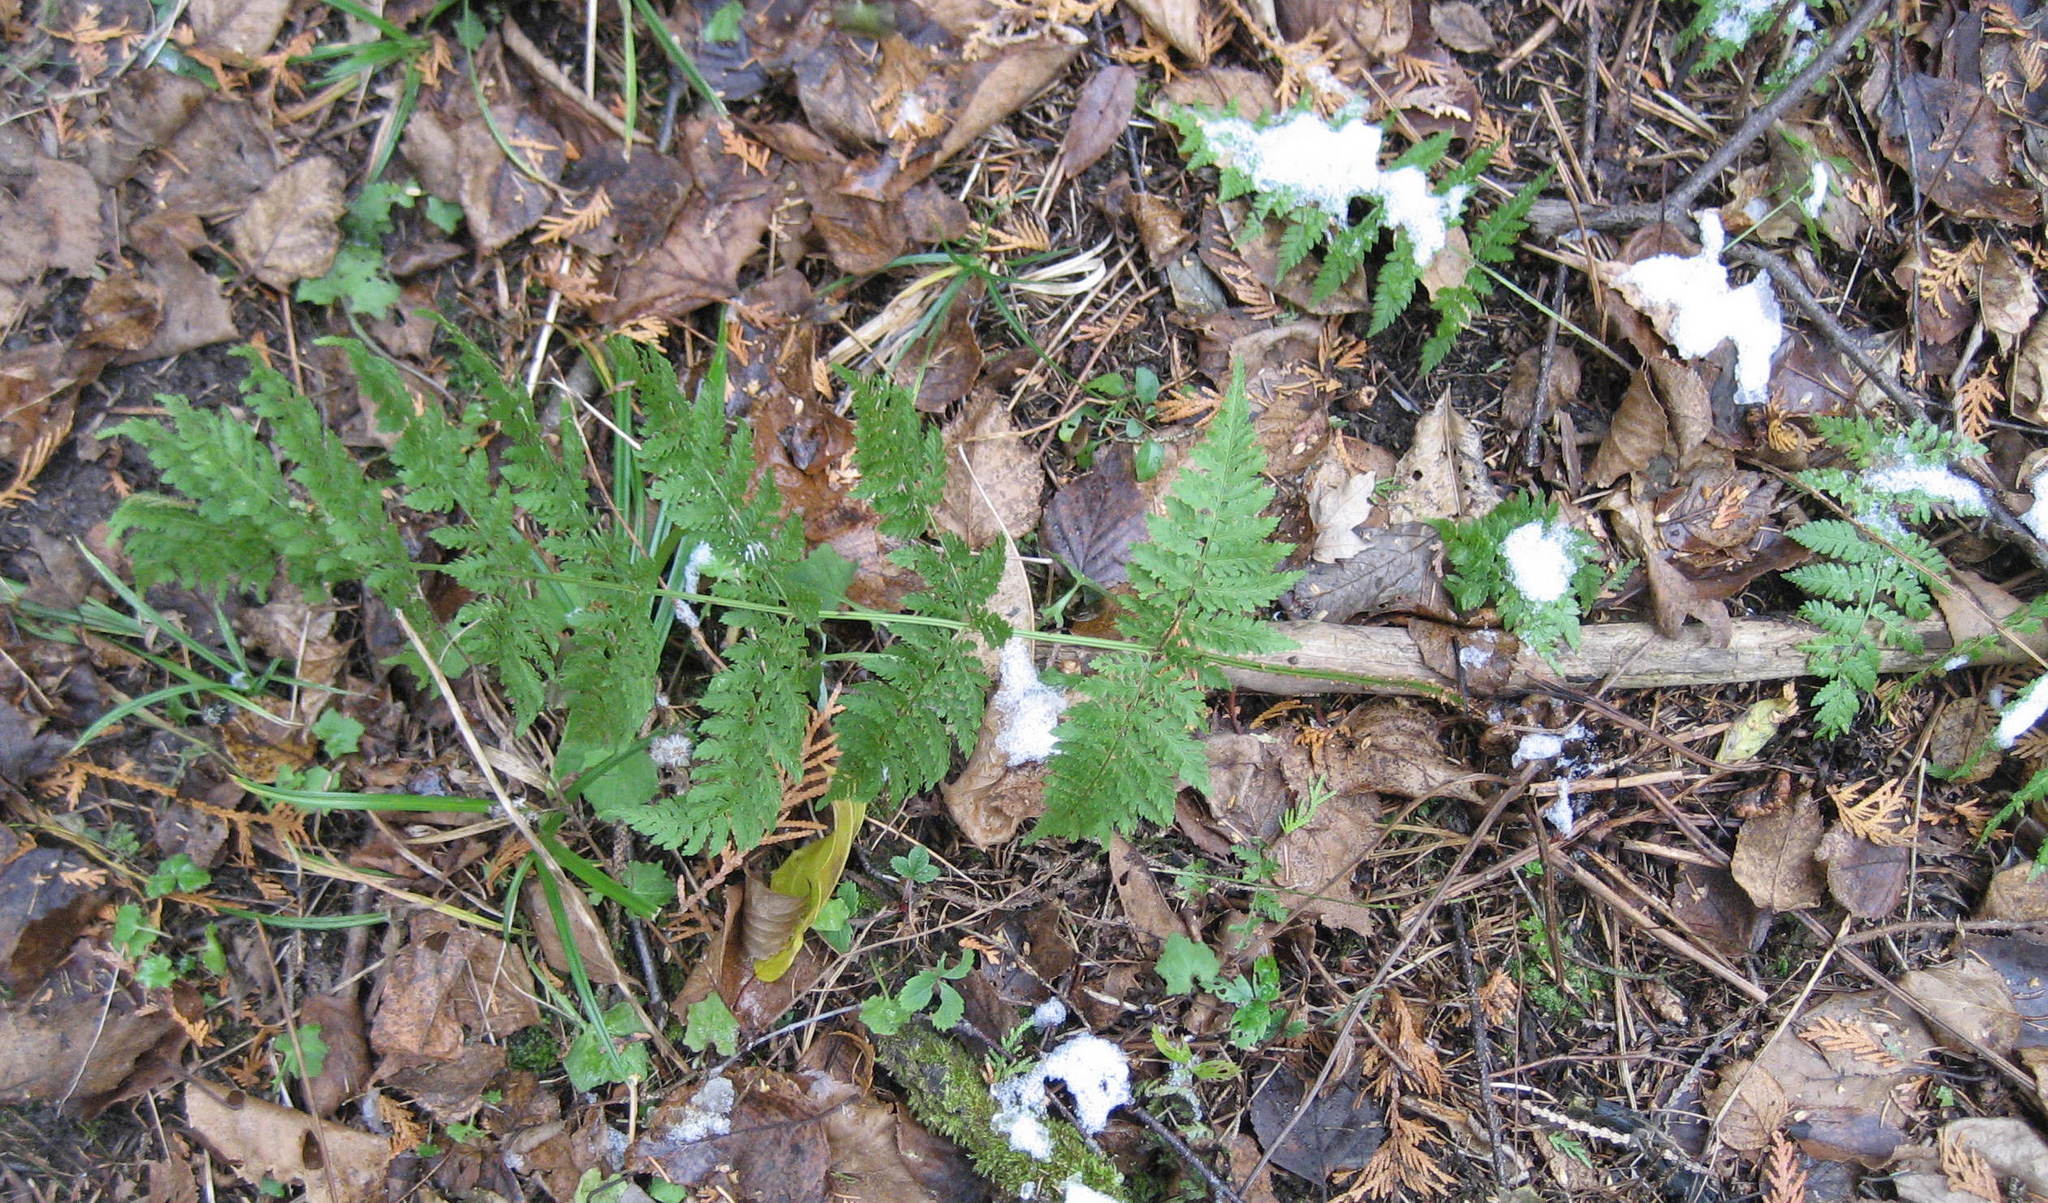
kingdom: Plantae
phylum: Tracheophyta
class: Polypodiopsida
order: Polypodiales
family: Dryopteridaceae
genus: Dryopteris
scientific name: Dryopteris intermedia
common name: Evergreen wood fern
